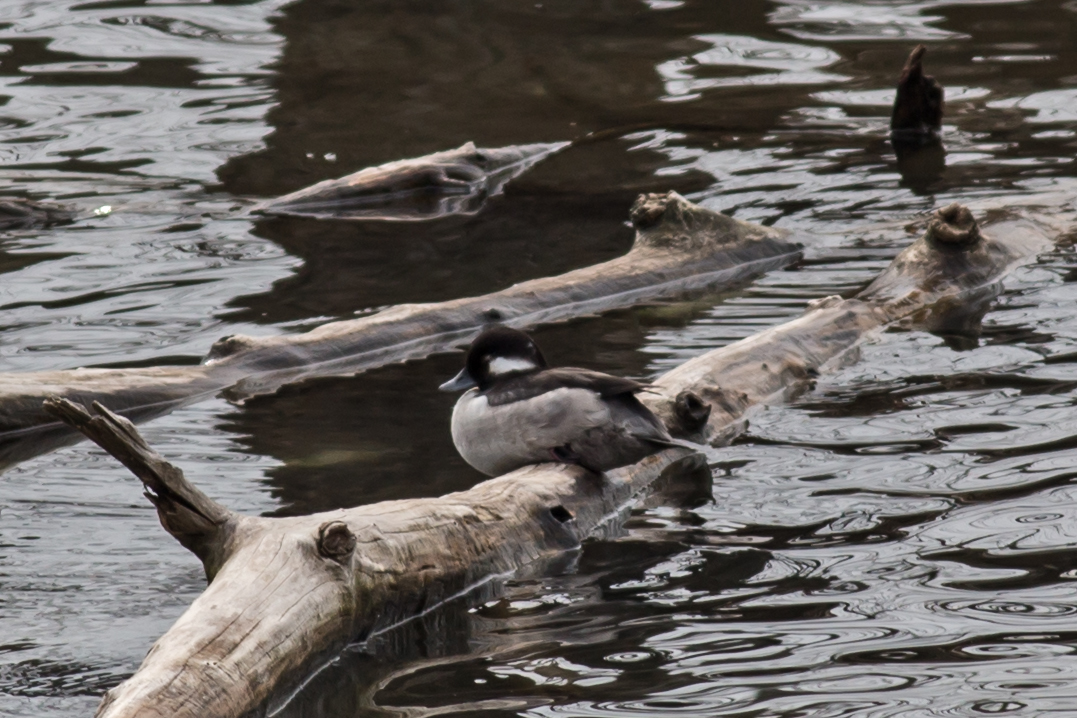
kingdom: Animalia
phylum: Chordata
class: Aves
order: Anseriformes
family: Anatidae
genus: Bucephala
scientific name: Bucephala albeola
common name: Bufflehead
